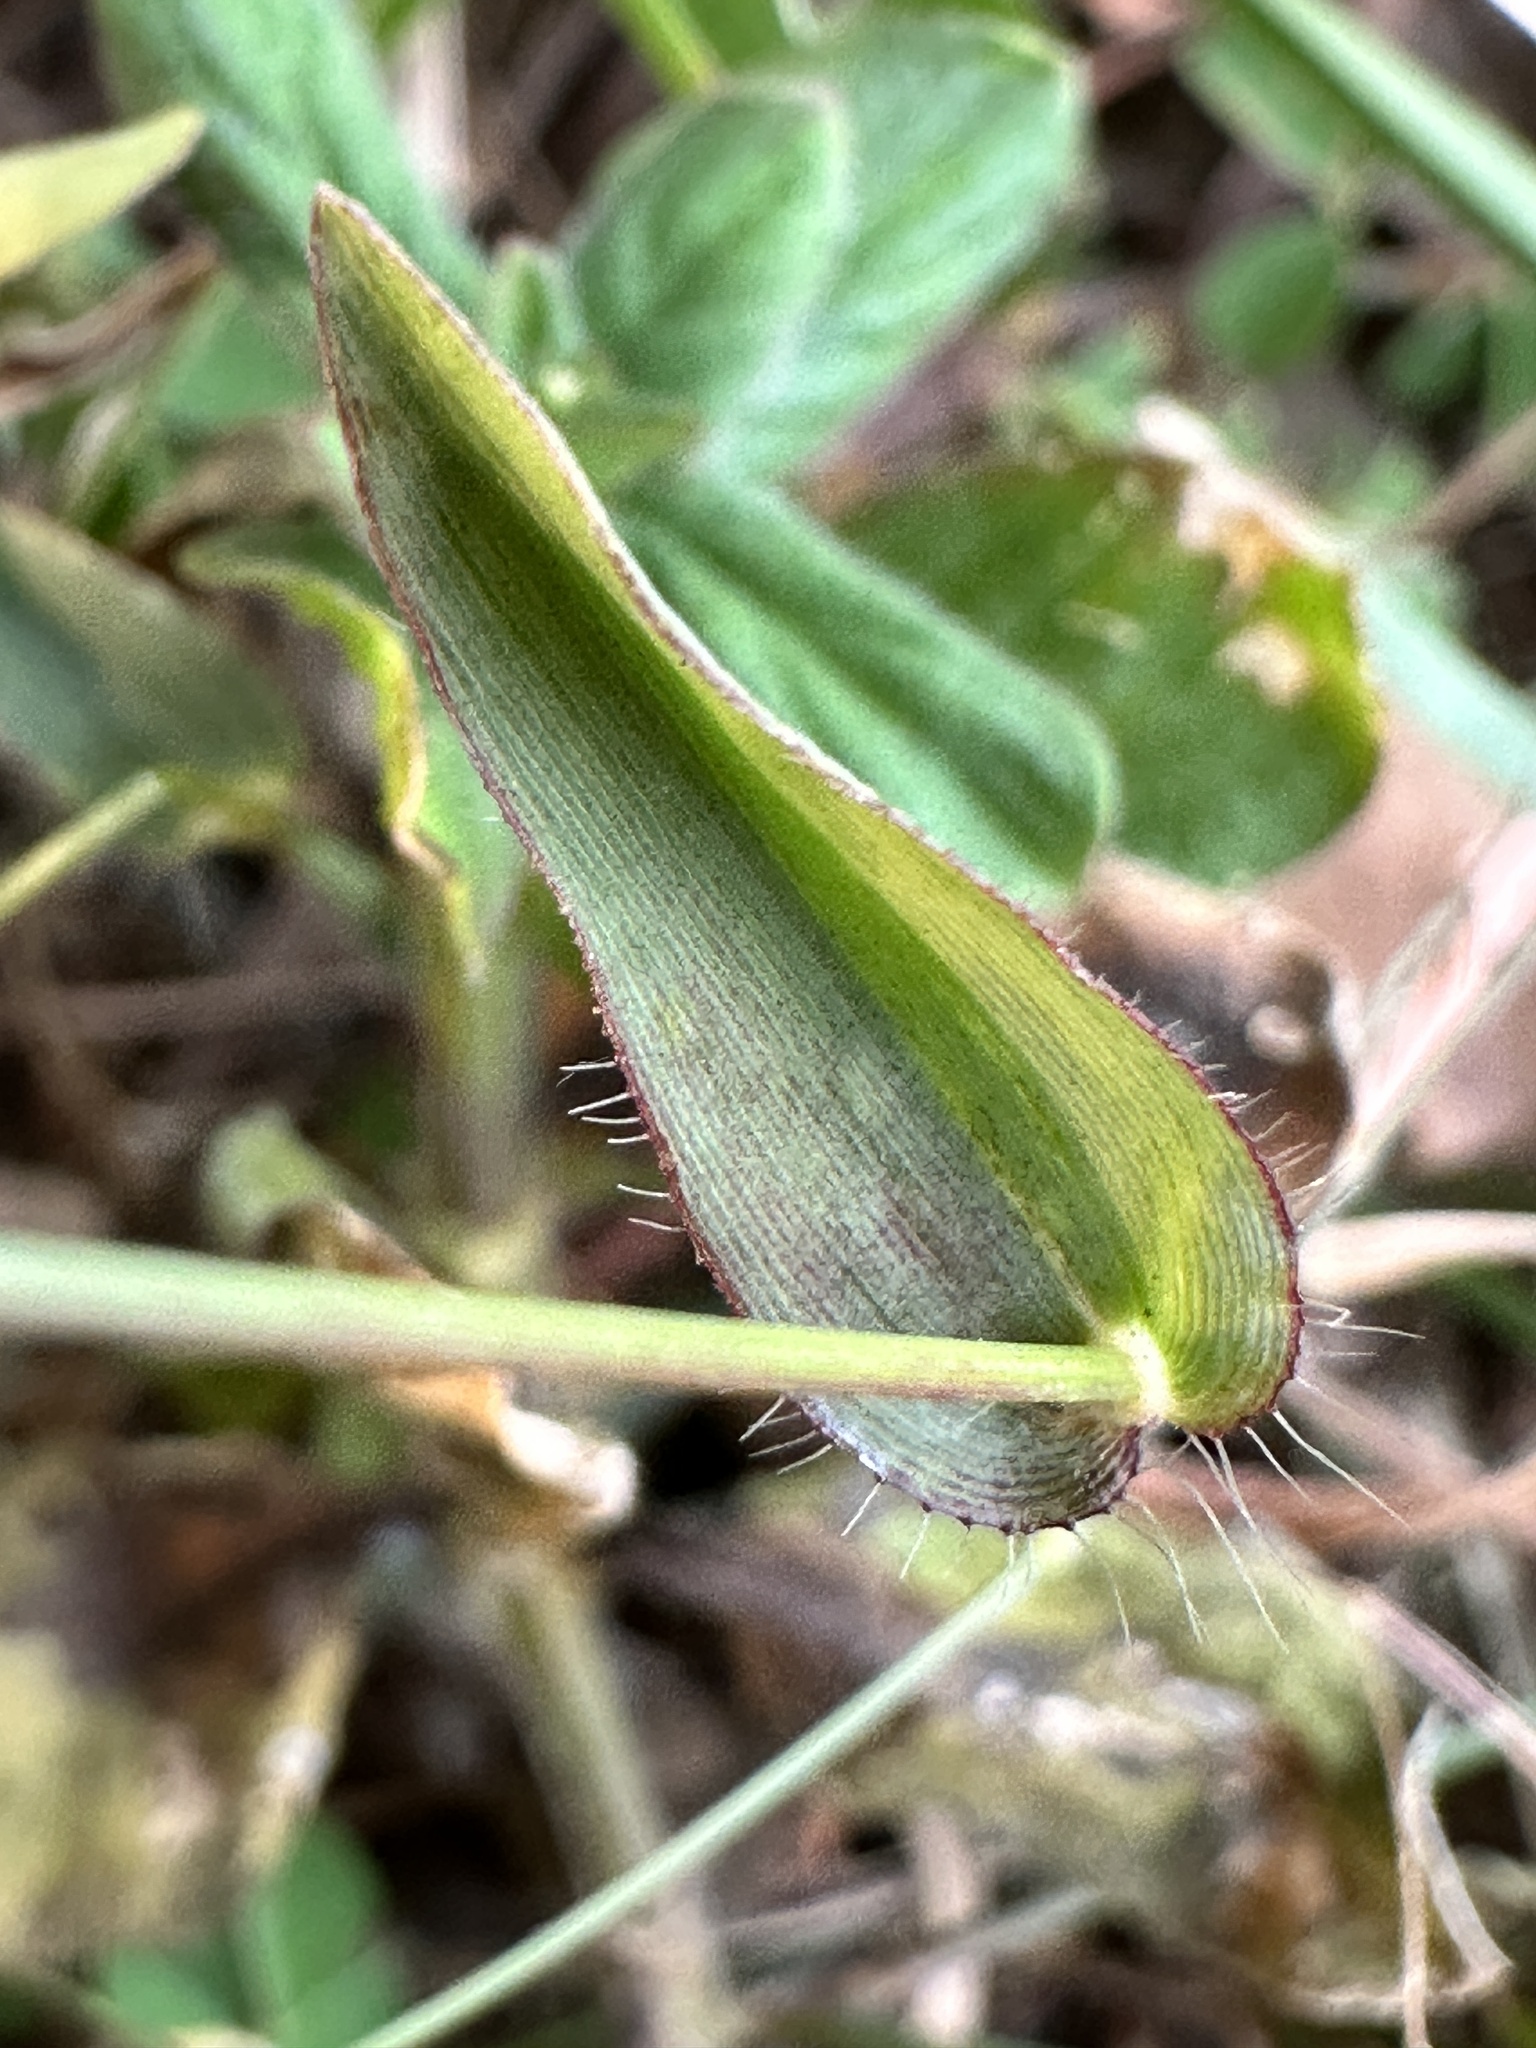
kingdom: Plantae
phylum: Tracheophyta
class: Liliopsida
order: Poales
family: Poaceae
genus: Alloteropsis
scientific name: Alloteropsis cimicina
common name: Summergrass
